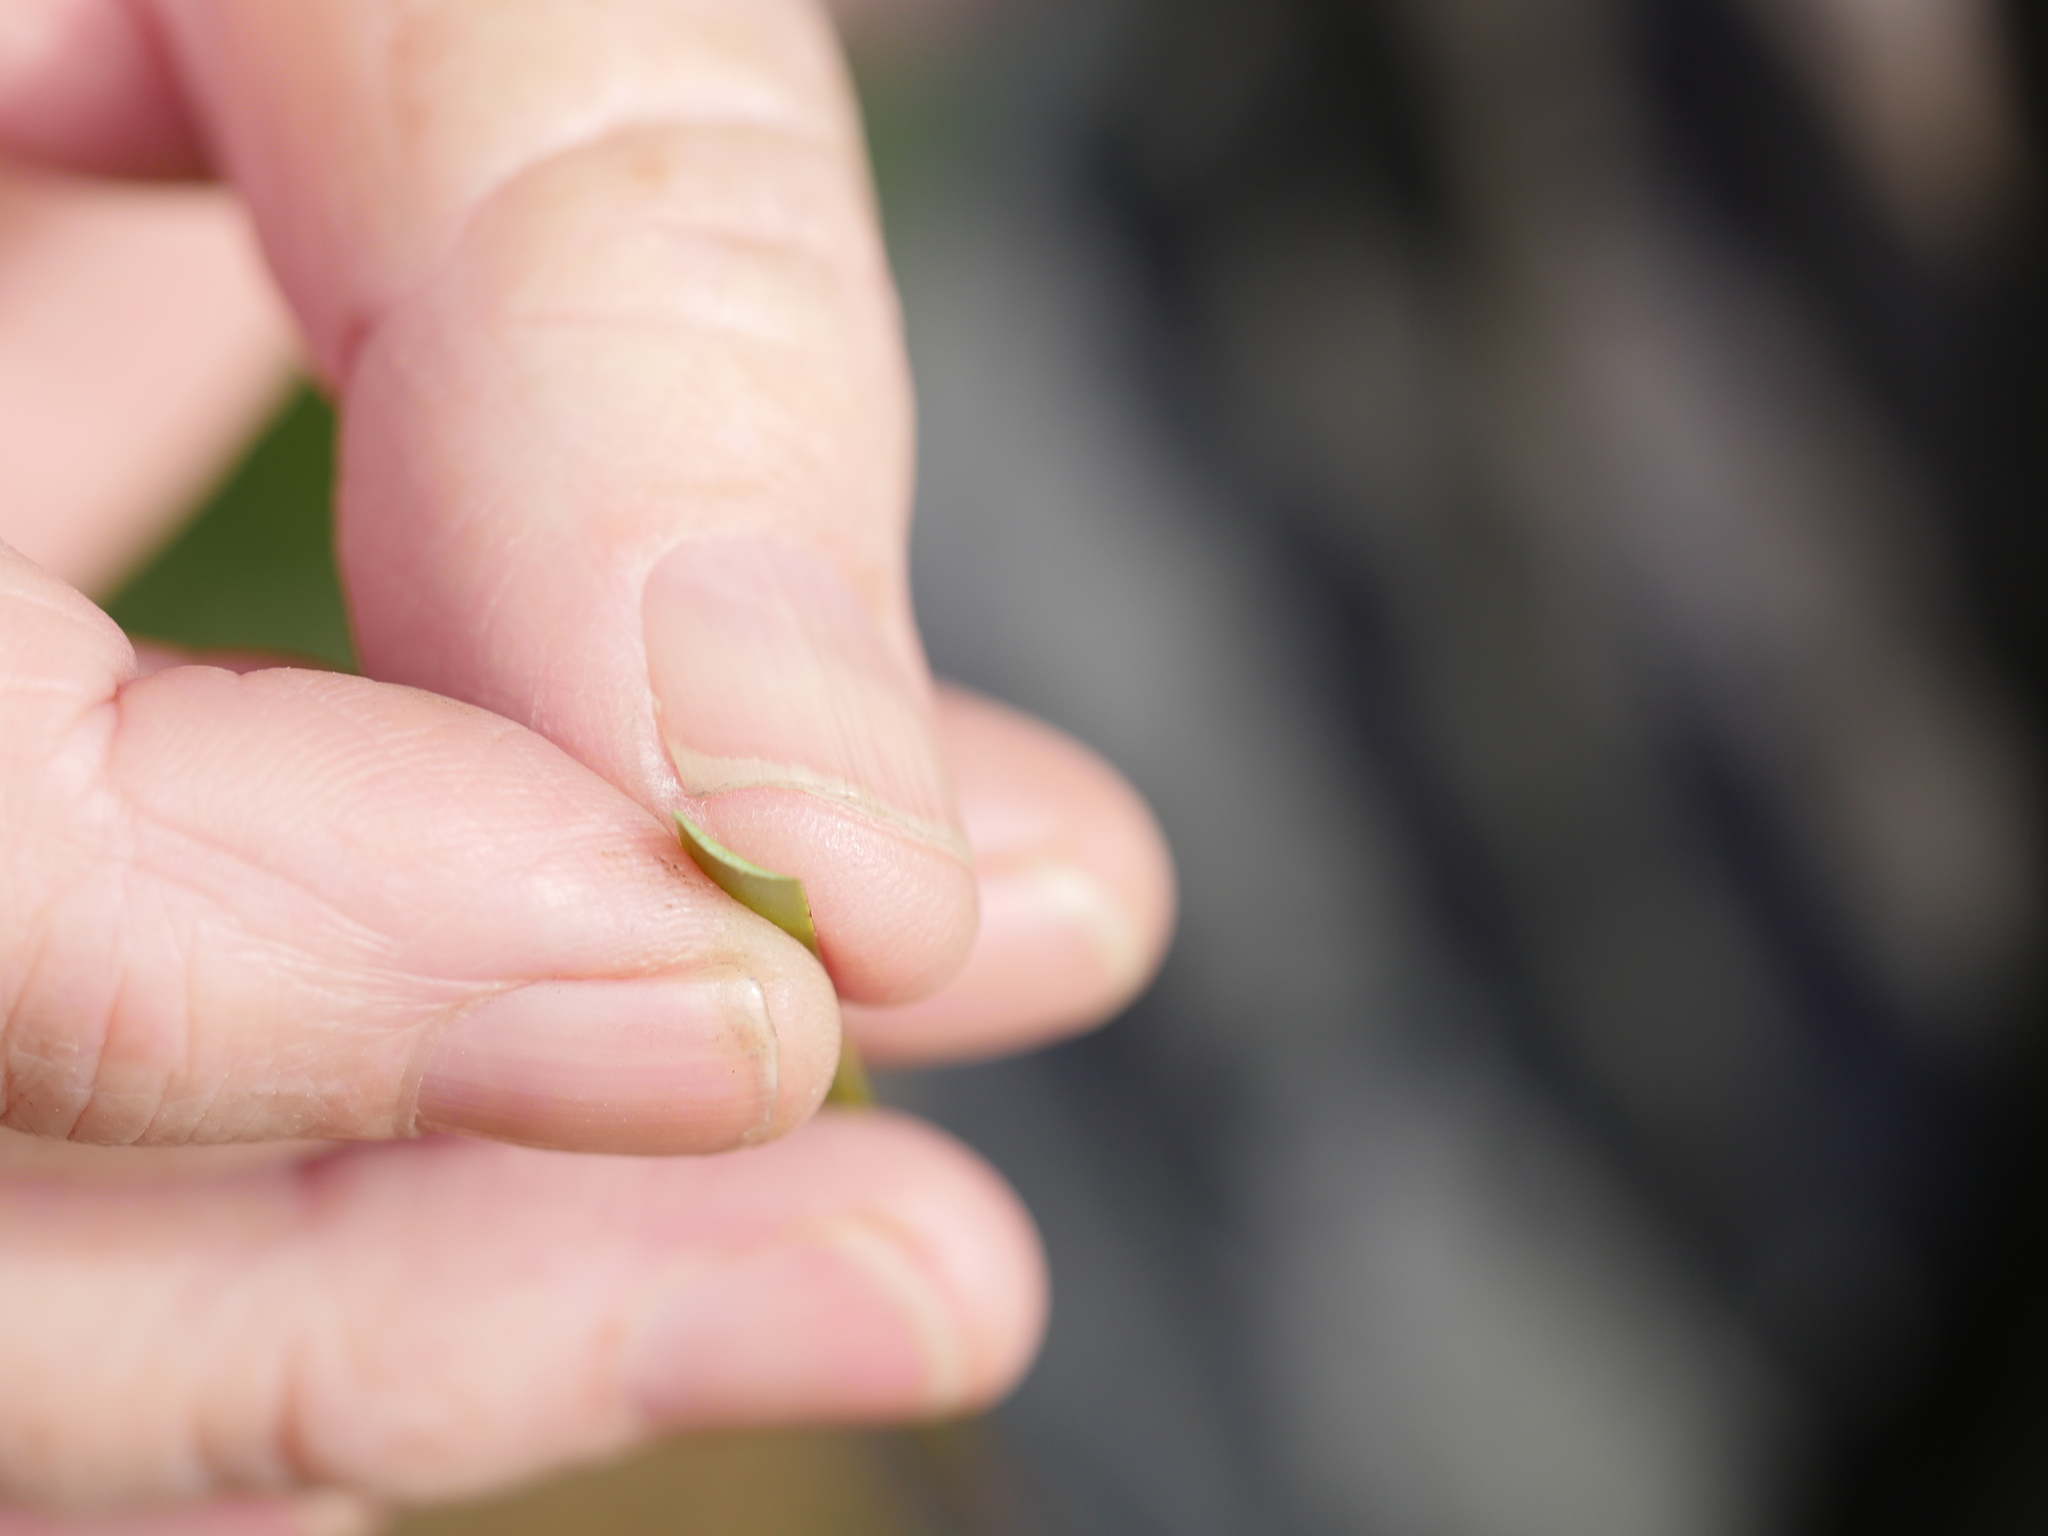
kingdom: Plantae
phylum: Tracheophyta
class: Liliopsida
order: Poales
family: Cyperaceae
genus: Lepidosperma
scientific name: Lepidosperma laterale
